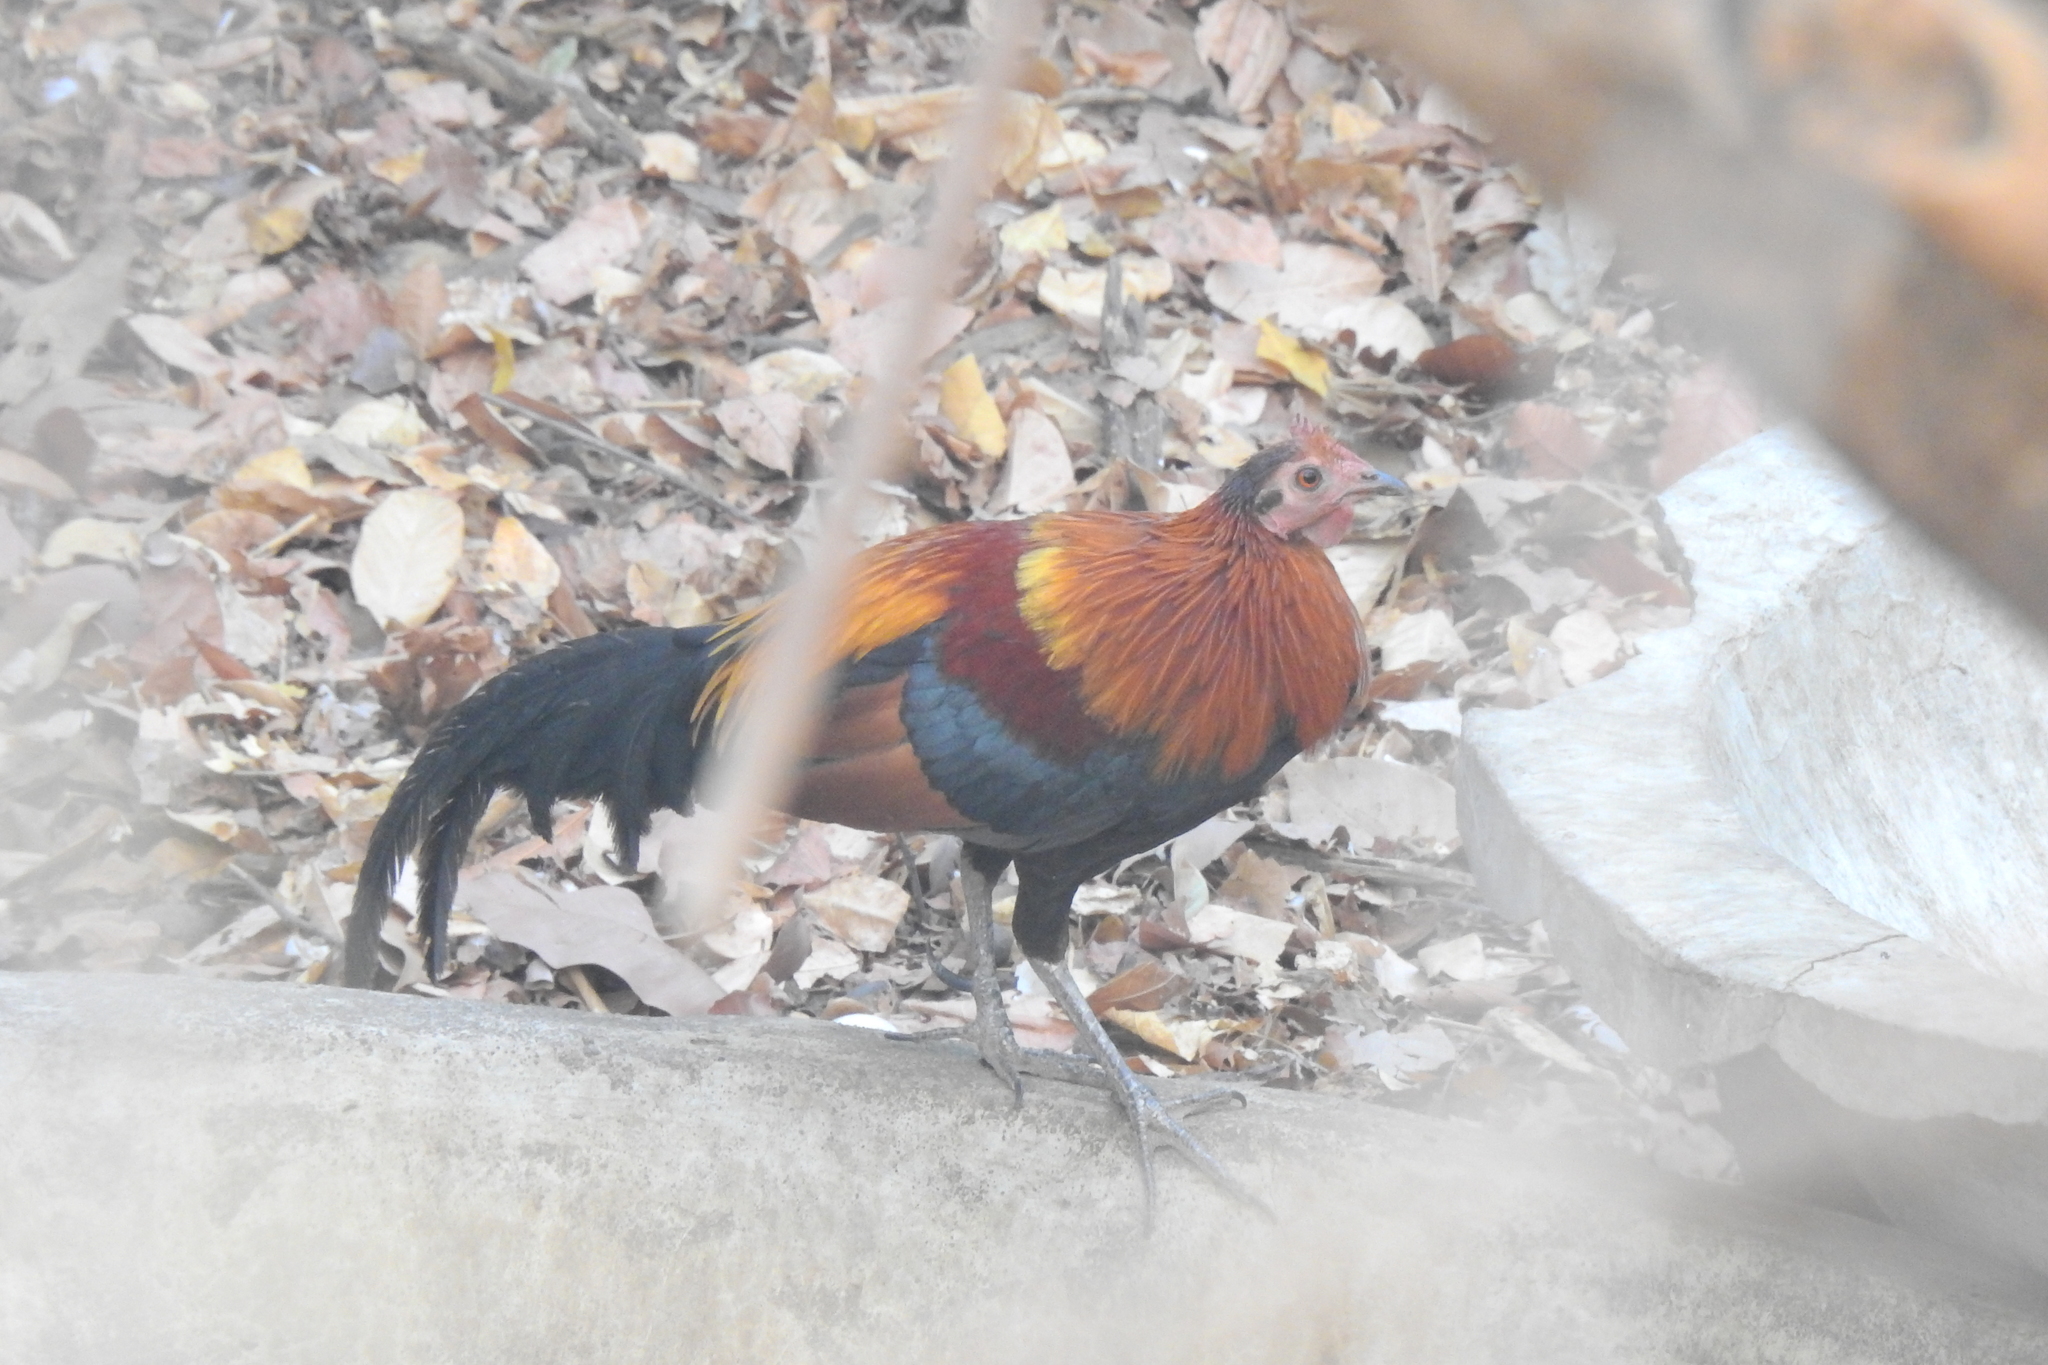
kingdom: Animalia
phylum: Chordata
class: Aves
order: Galliformes
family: Phasianidae
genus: Gallus
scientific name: Gallus gallus
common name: Red junglefowl
